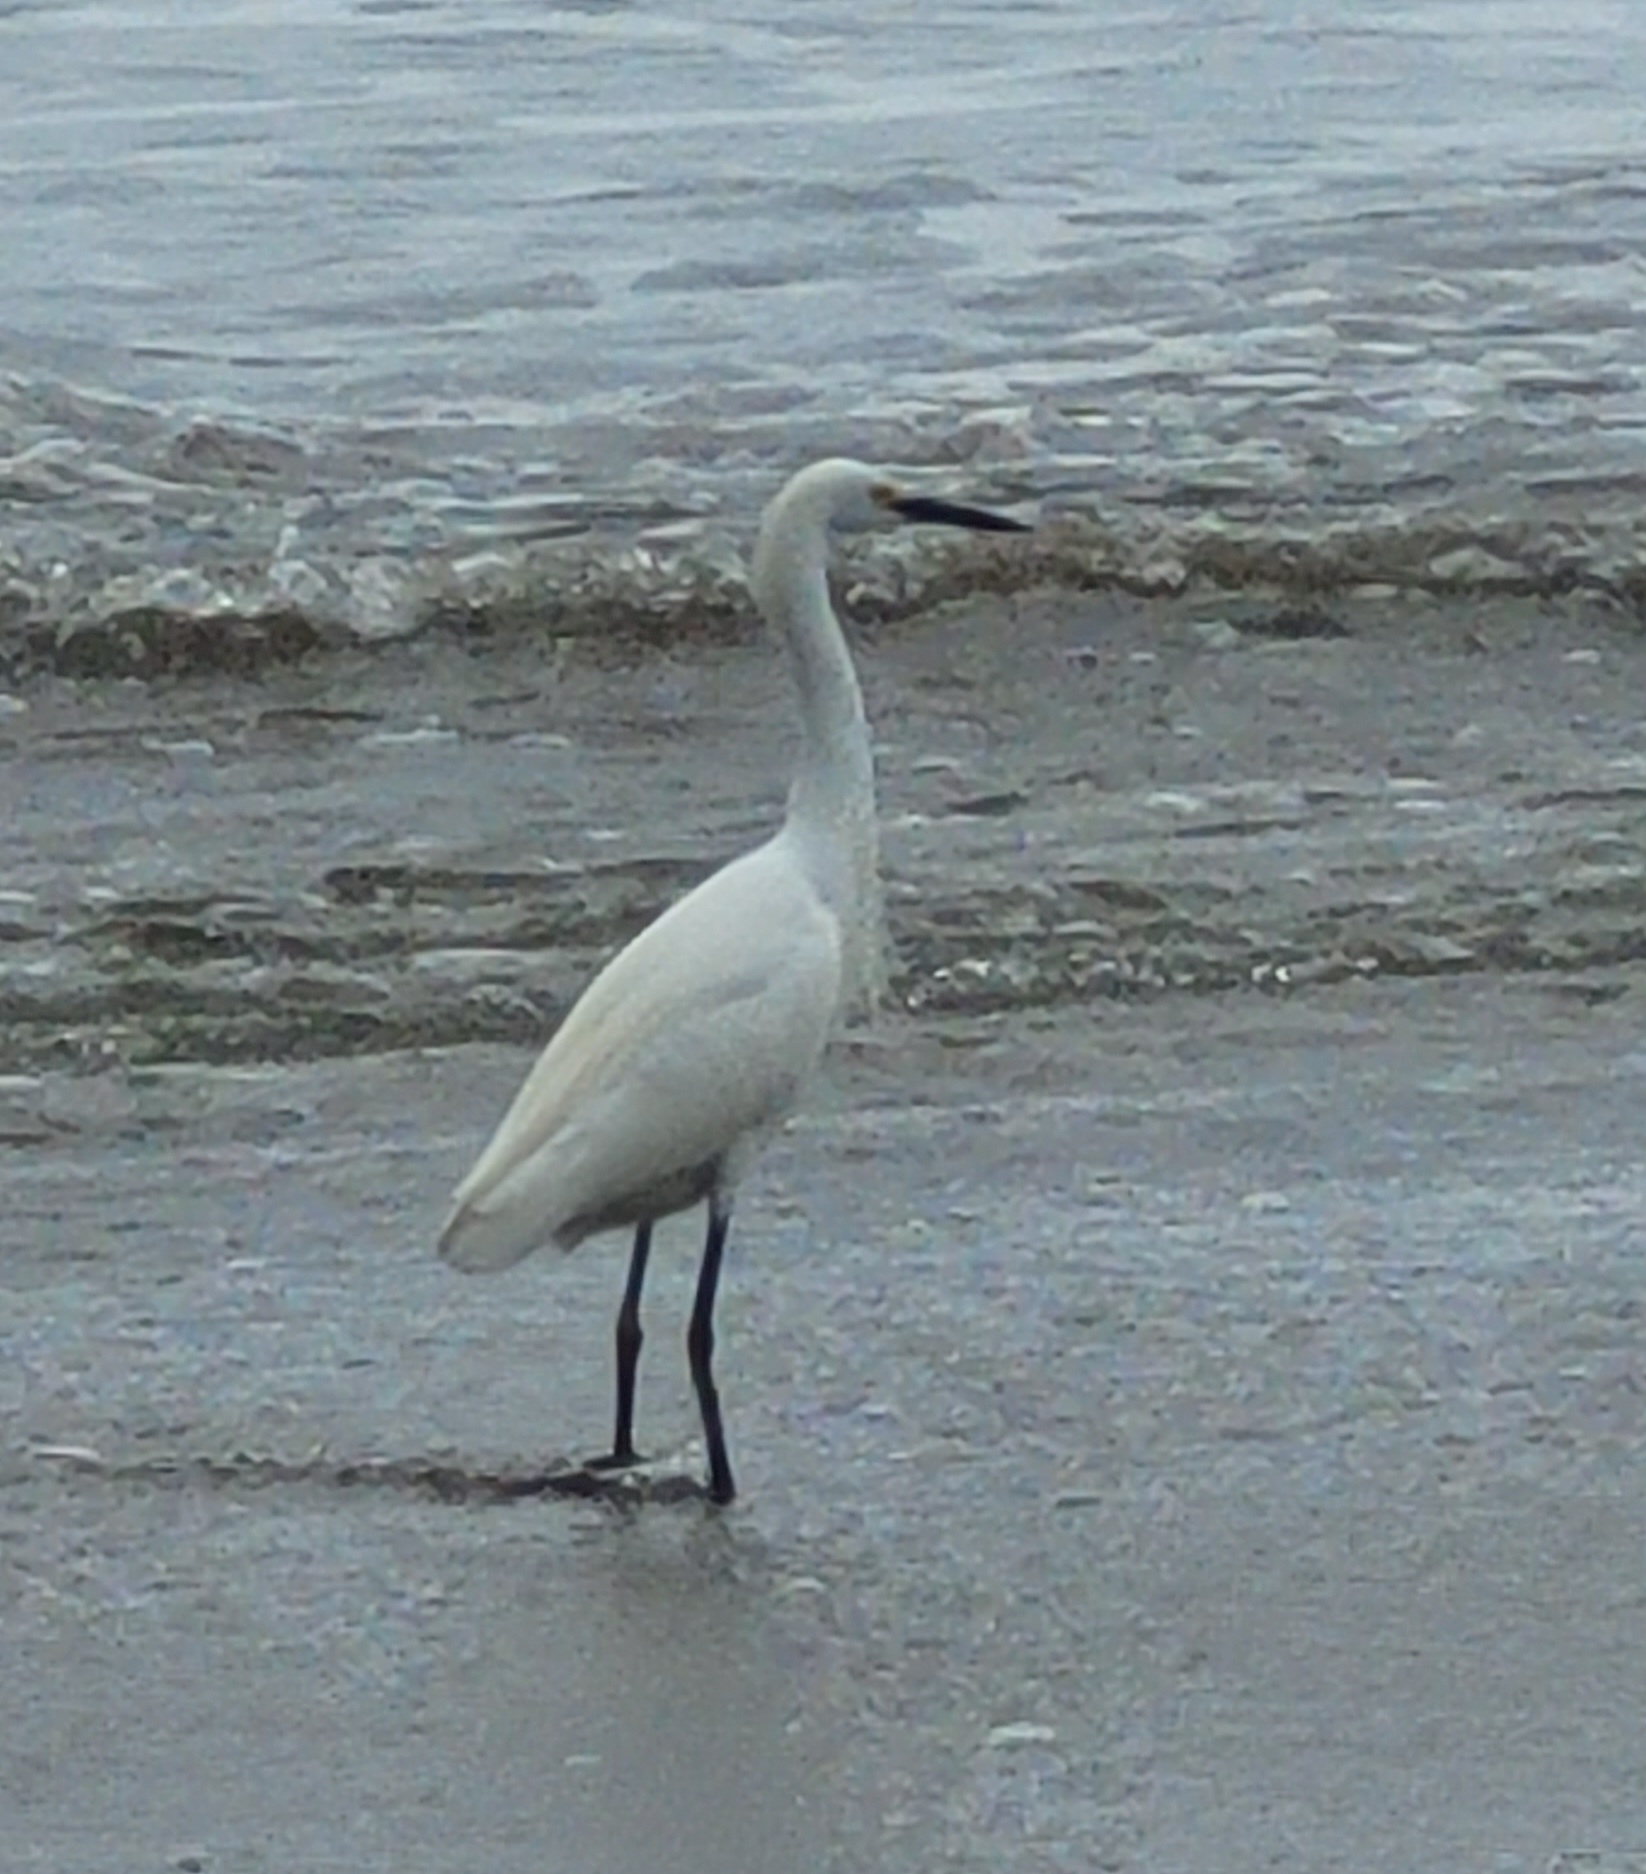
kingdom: Animalia
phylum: Chordata
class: Aves
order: Pelecaniformes
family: Ardeidae
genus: Egretta
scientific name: Egretta thula
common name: Snowy egret
